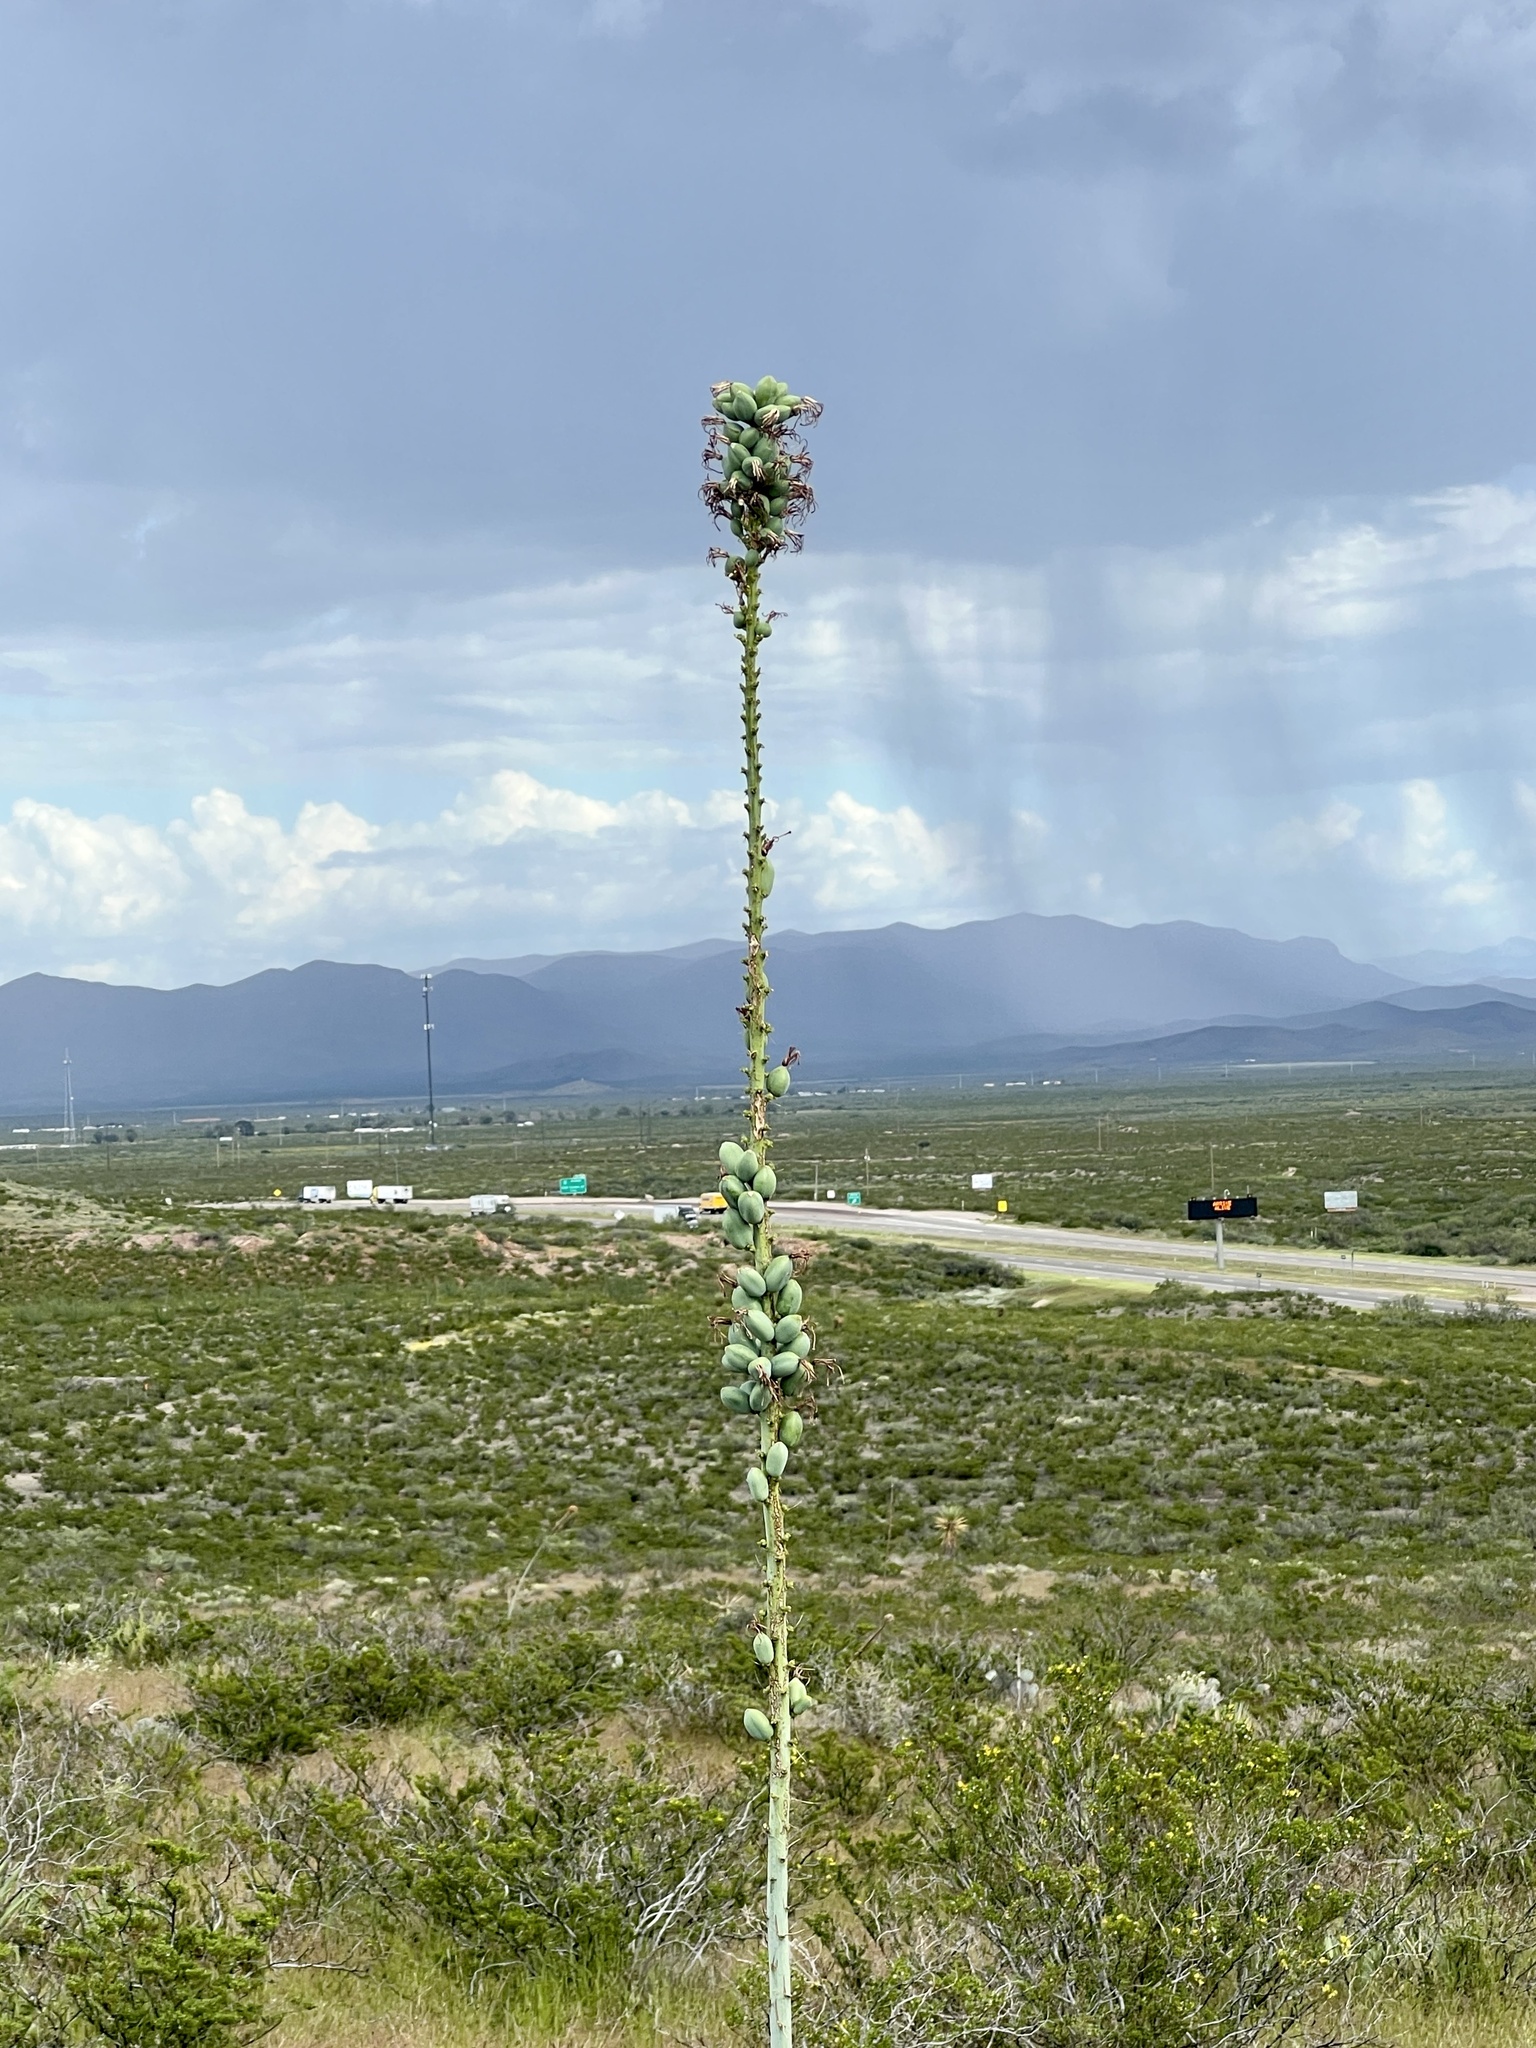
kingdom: Plantae
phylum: Tracheophyta
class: Liliopsida
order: Asparagales
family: Asparagaceae
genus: Agave
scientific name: Agave lechuguilla
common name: Lecheguilla agave
